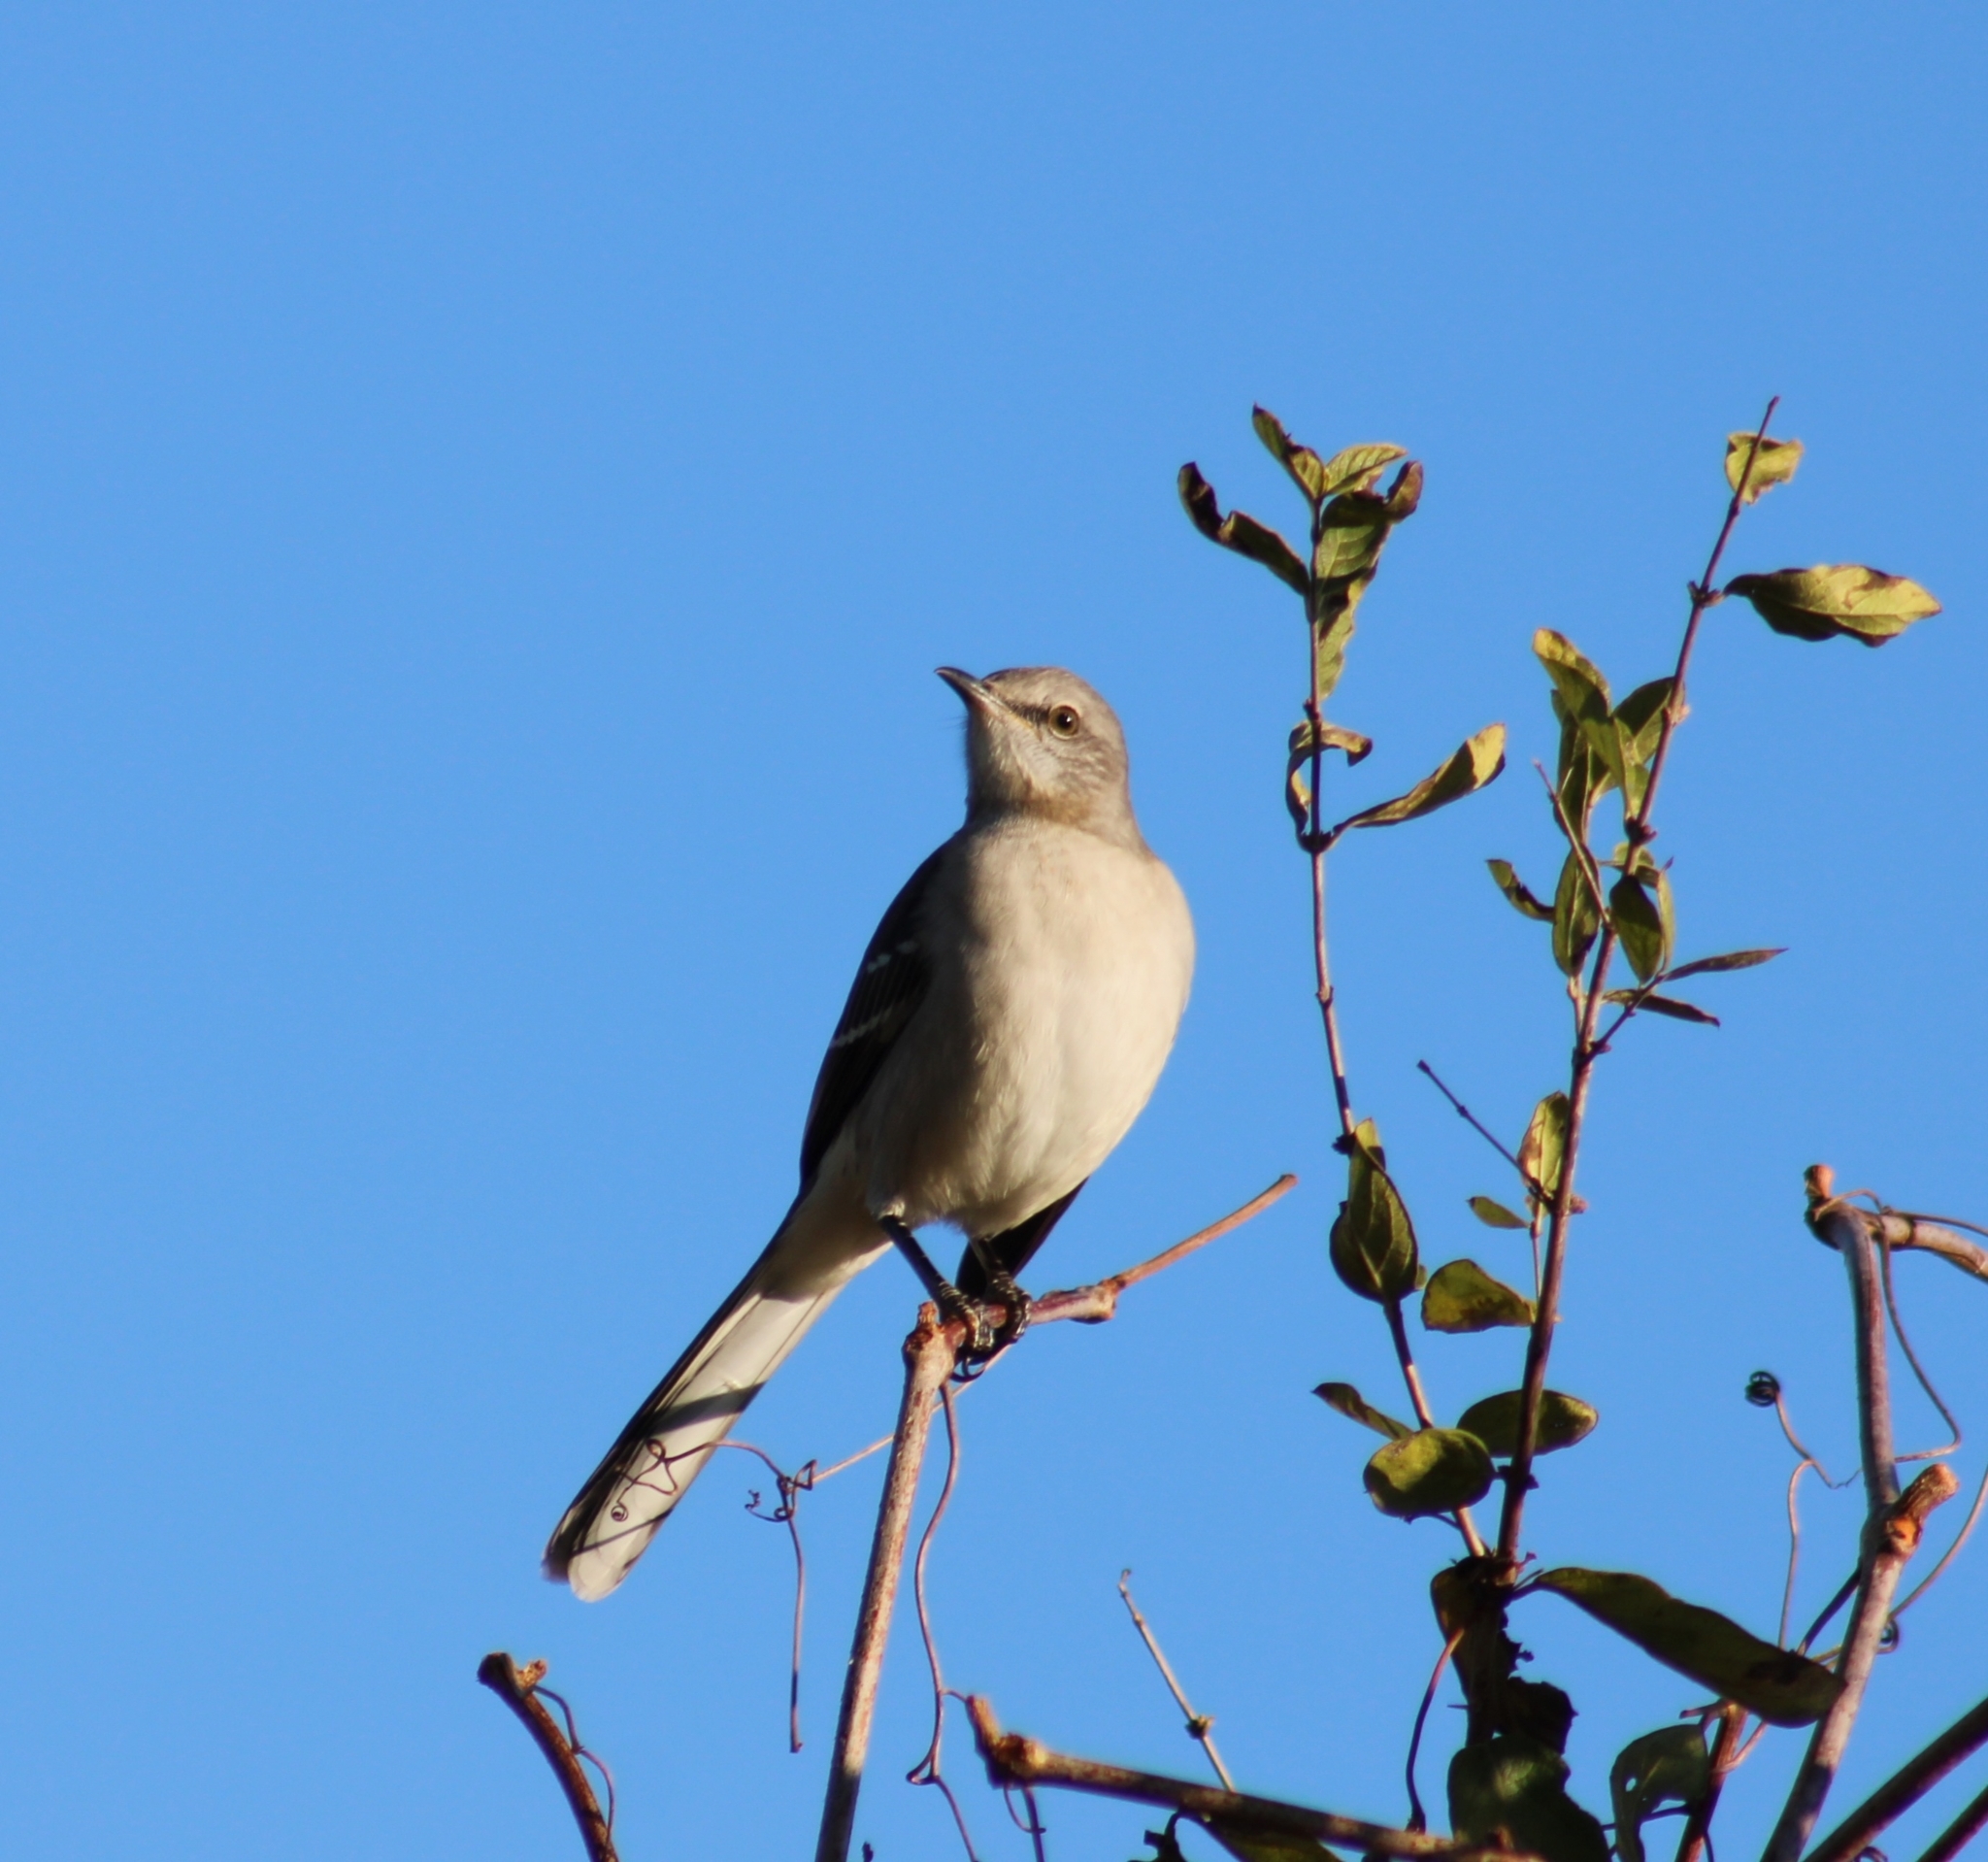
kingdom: Animalia
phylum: Chordata
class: Aves
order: Passeriformes
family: Mimidae
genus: Mimus
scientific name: Mimus polyglottos
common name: Northern mockingbird
